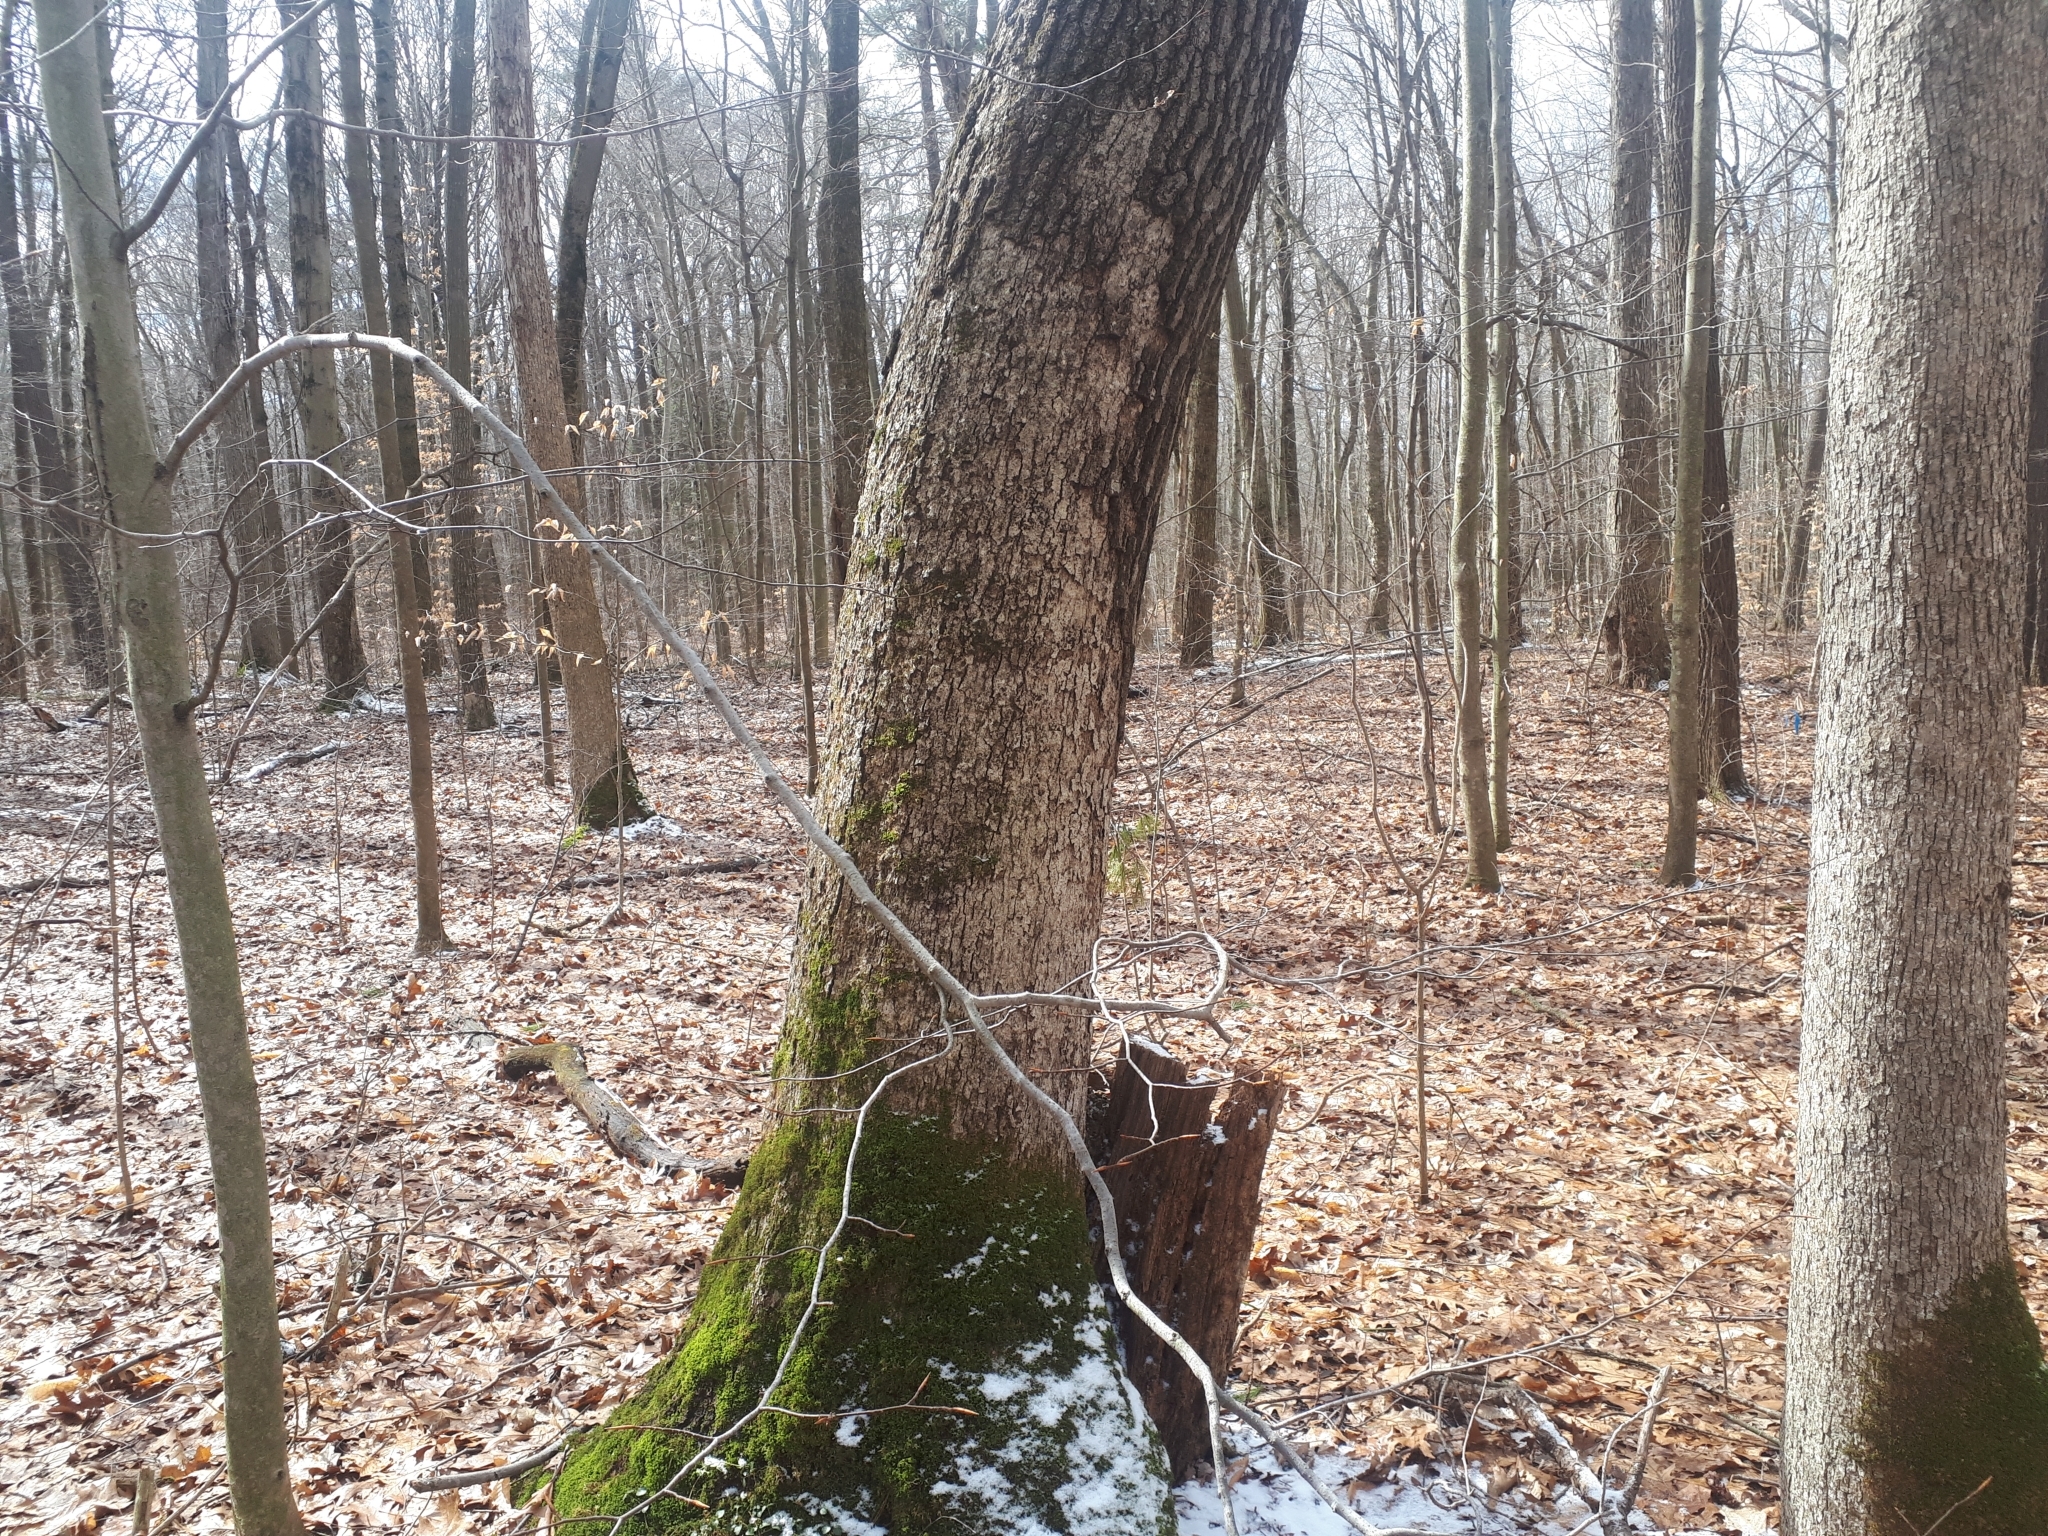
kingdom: Plantae
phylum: Tracheophyta
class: Magnoliopsida
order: Fagales
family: Fagaceae
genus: Quercus
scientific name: Quercus velutina
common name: Black oak
